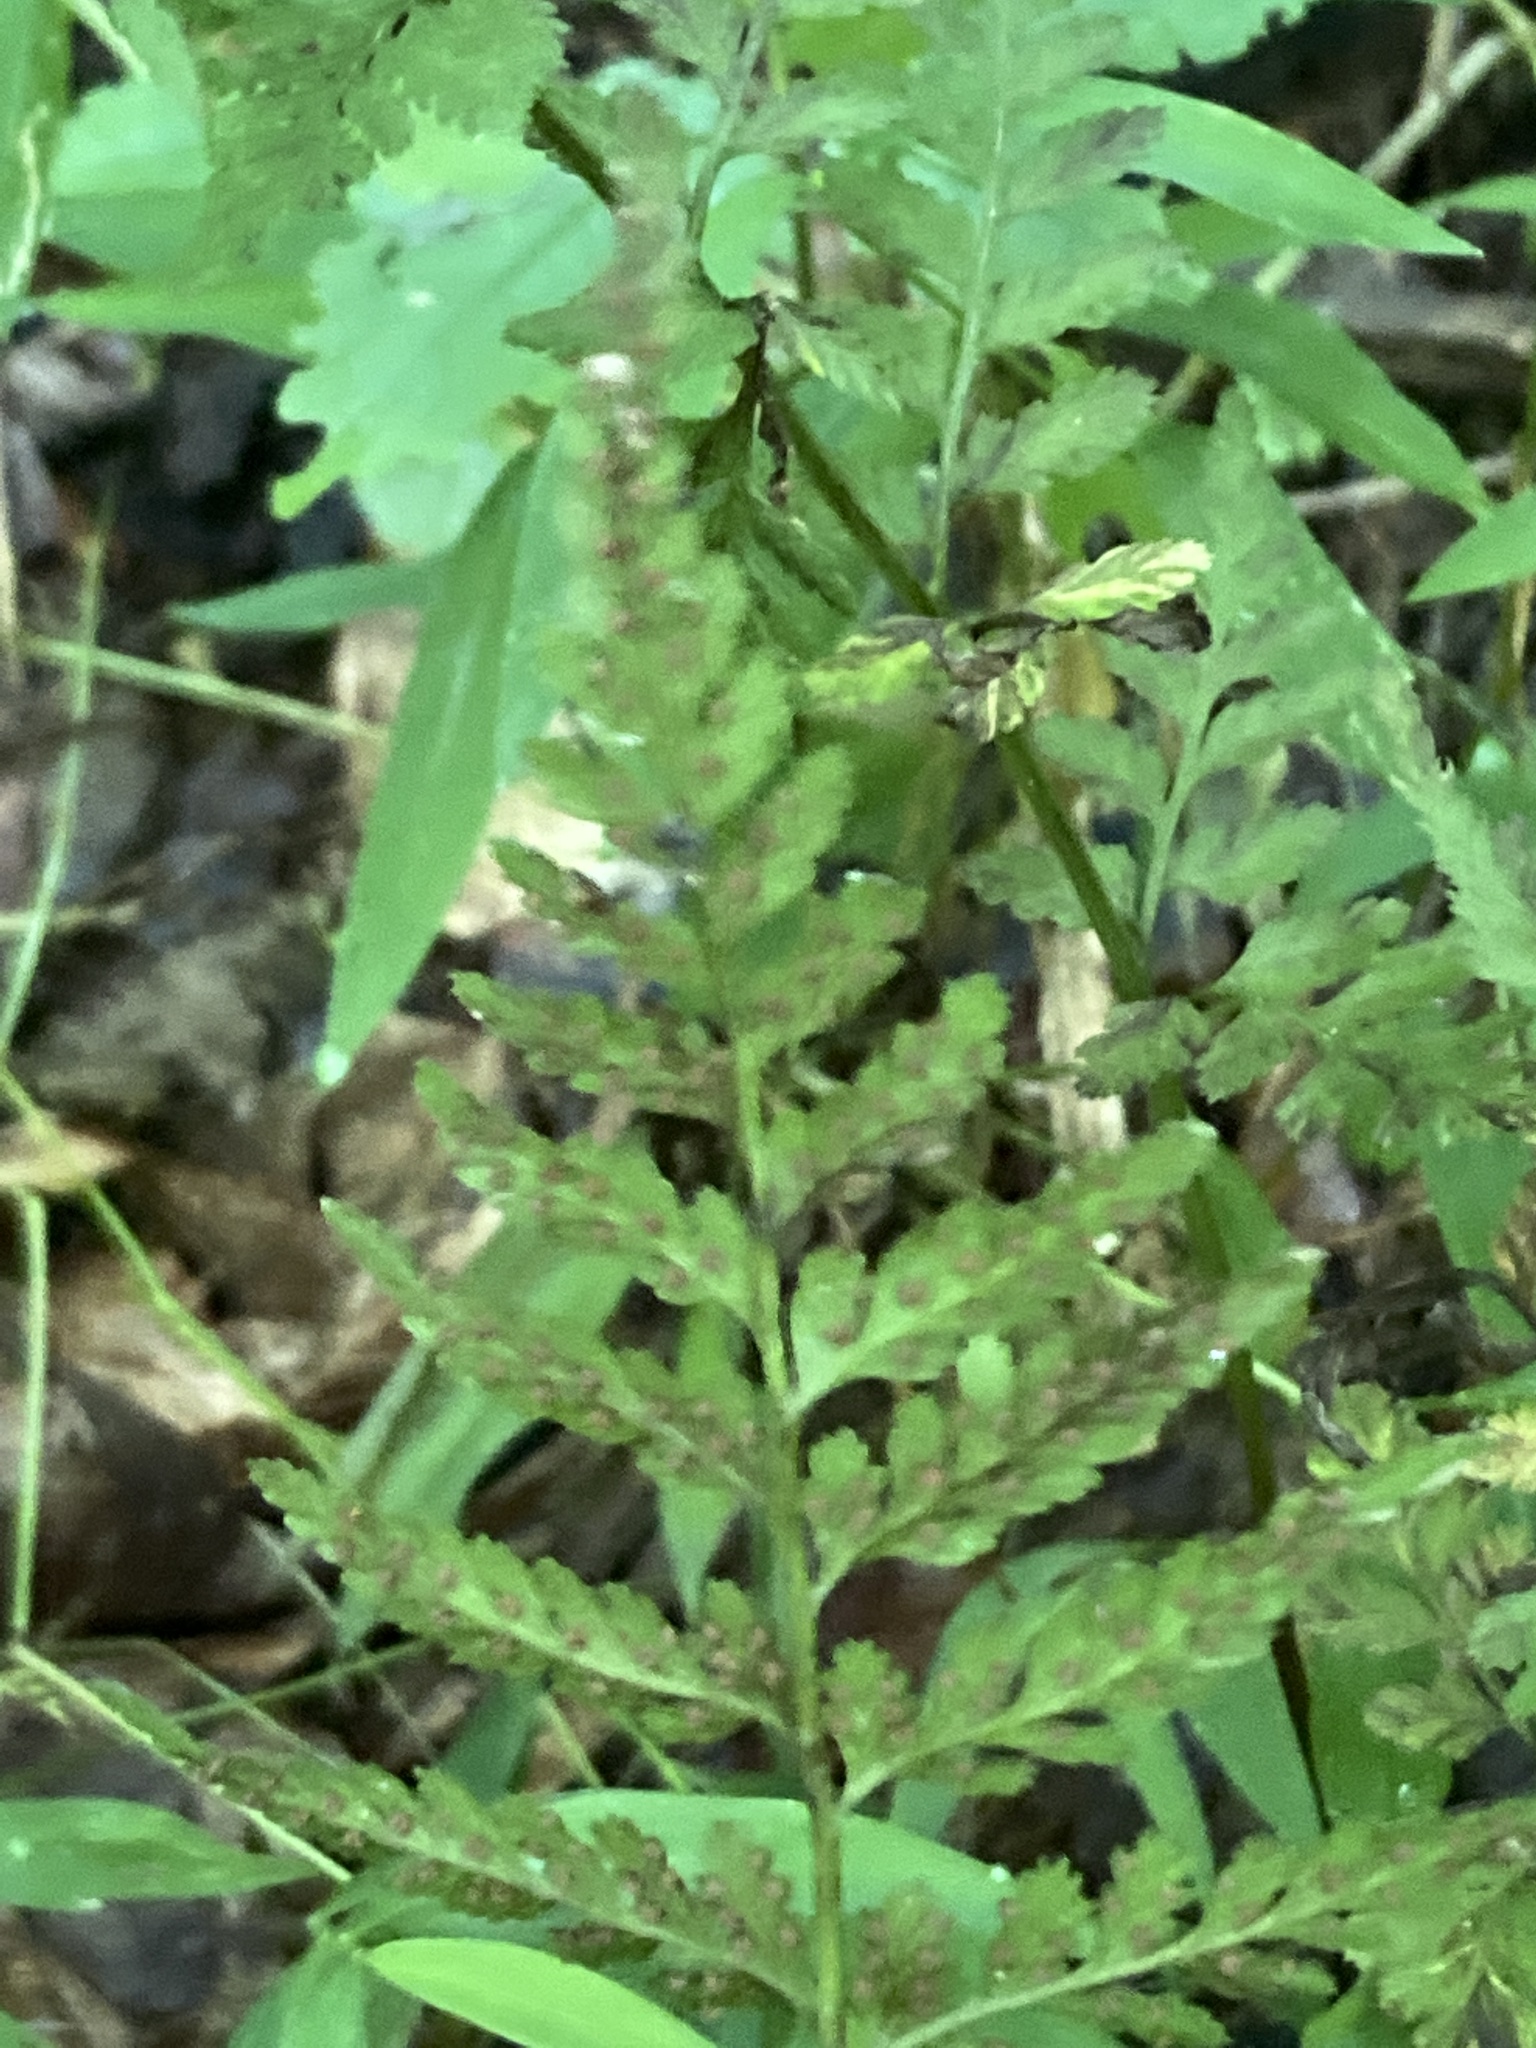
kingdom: Plantae
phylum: Tracheophyta
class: Polypodiopsida
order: Polypodiales
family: Cystopteridaceae
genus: Cystopteris
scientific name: Cystopteris protrusa
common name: Lowland brittle fern
